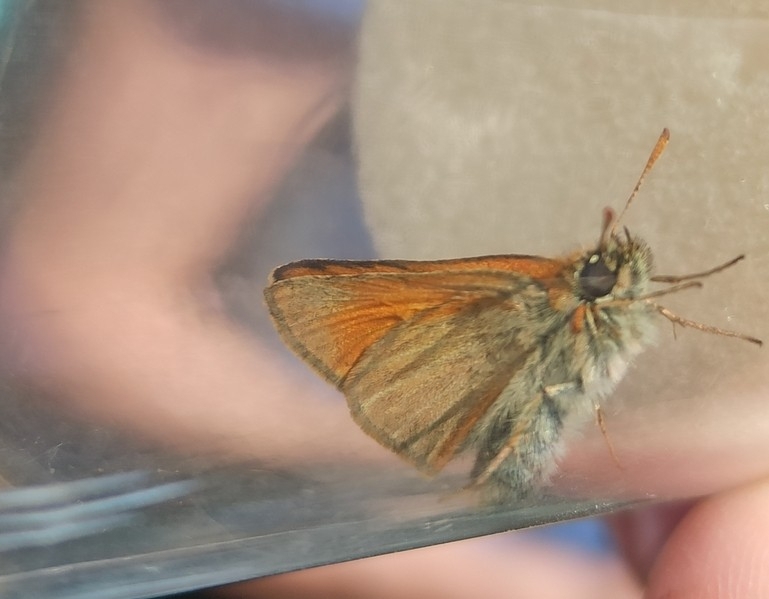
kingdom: Animalia
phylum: Arthropoda
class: Insecta
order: Lepidoptera
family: Hesperiidae
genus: Thymelicus
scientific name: Thymelicus sylvestris
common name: Small skipper
